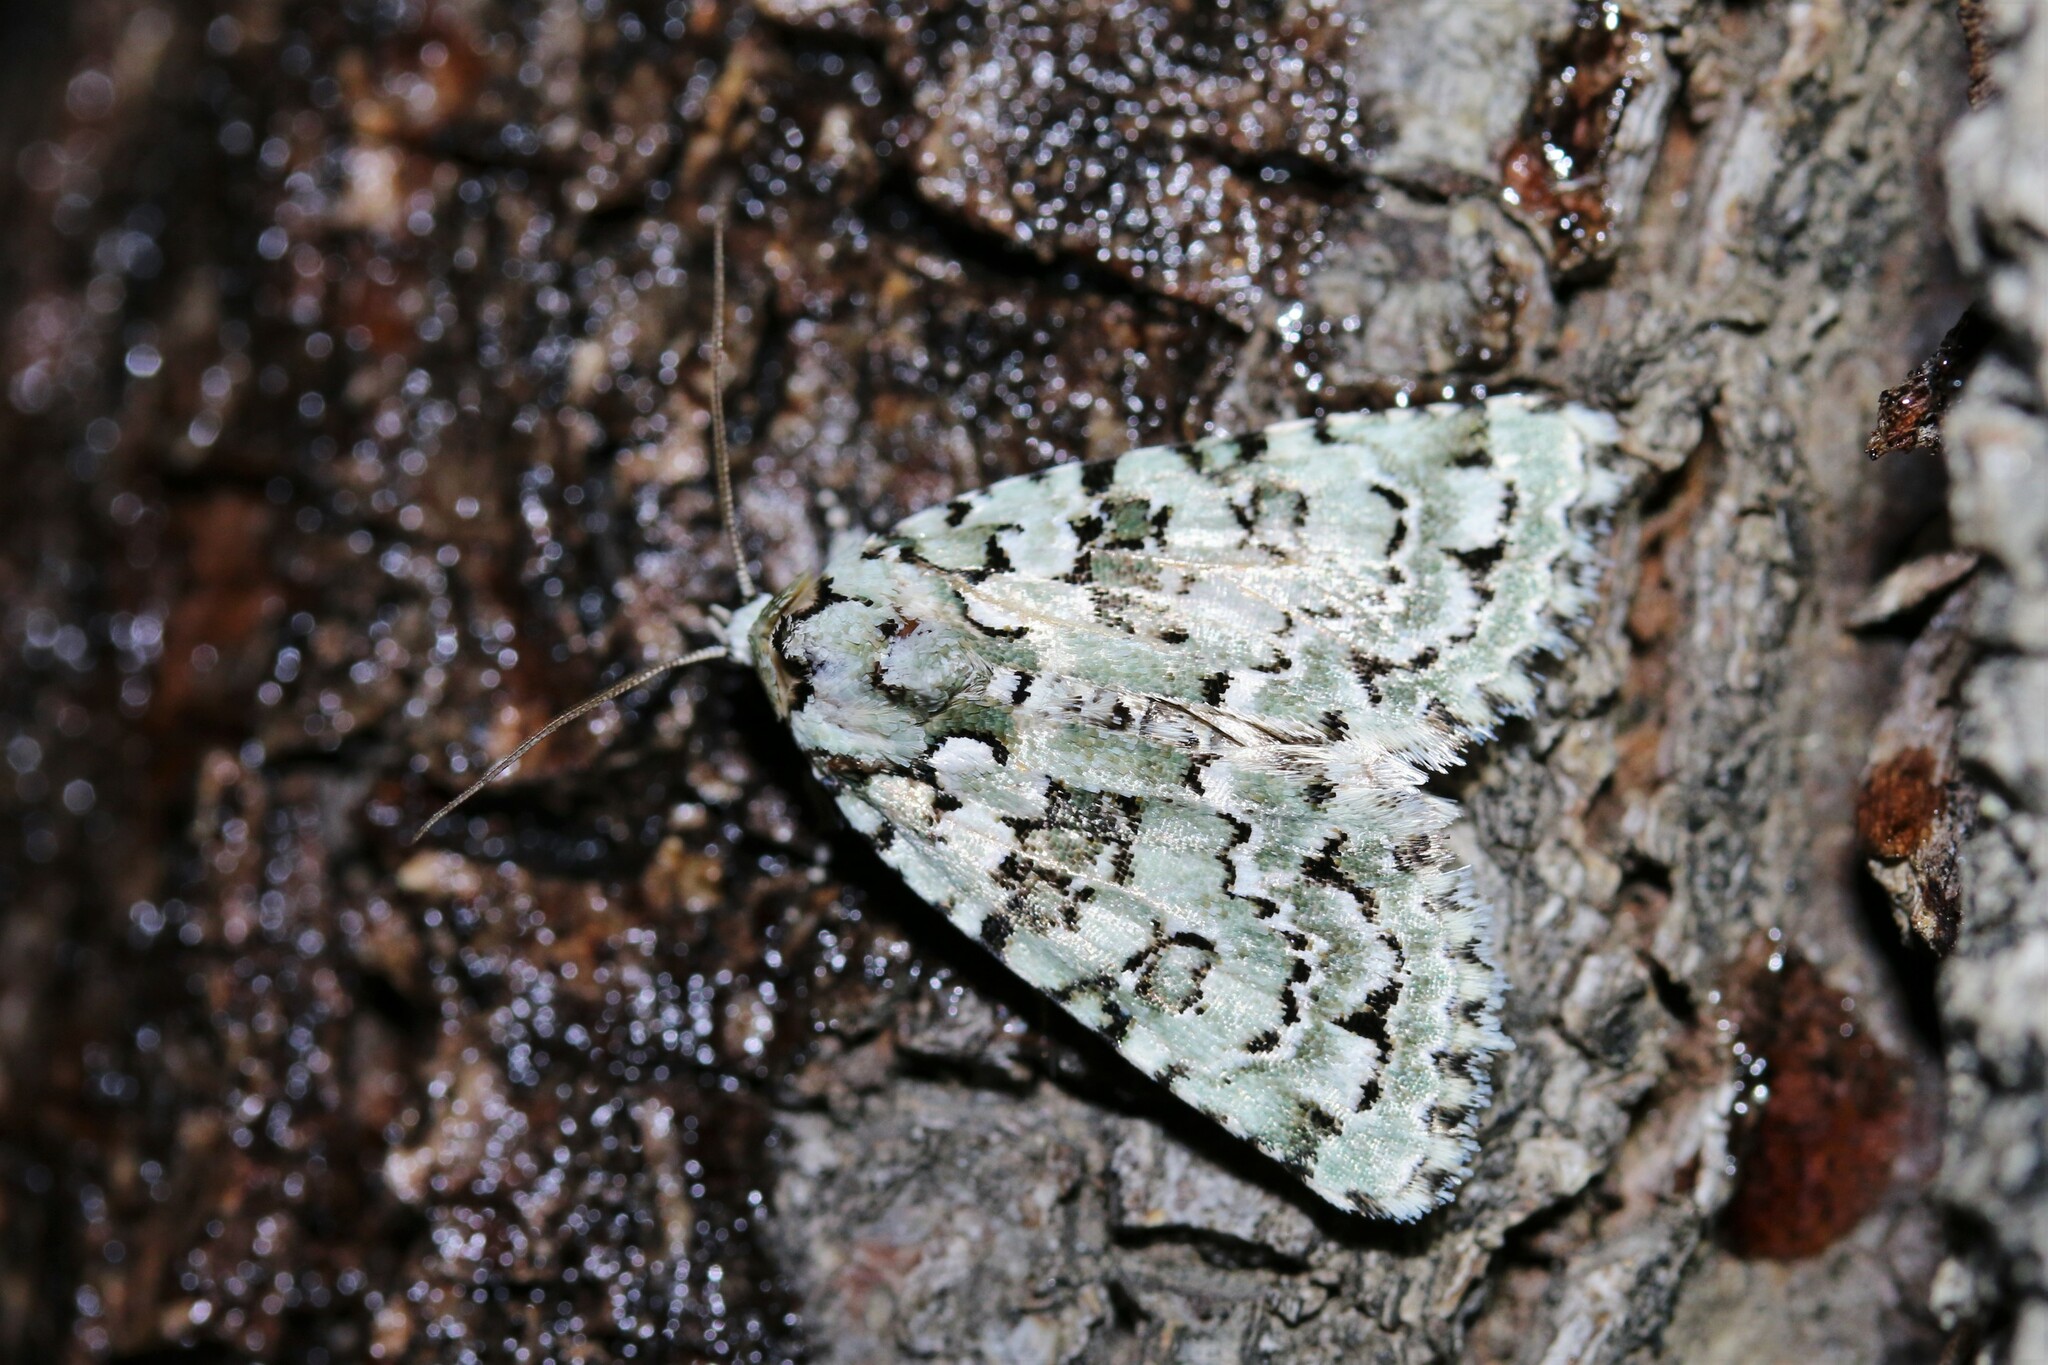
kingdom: Animalia
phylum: Arthropoda
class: Insecta
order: Lepidoptera
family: Noctuidae
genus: Nyctobrya
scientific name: Nyctobrya muralis
